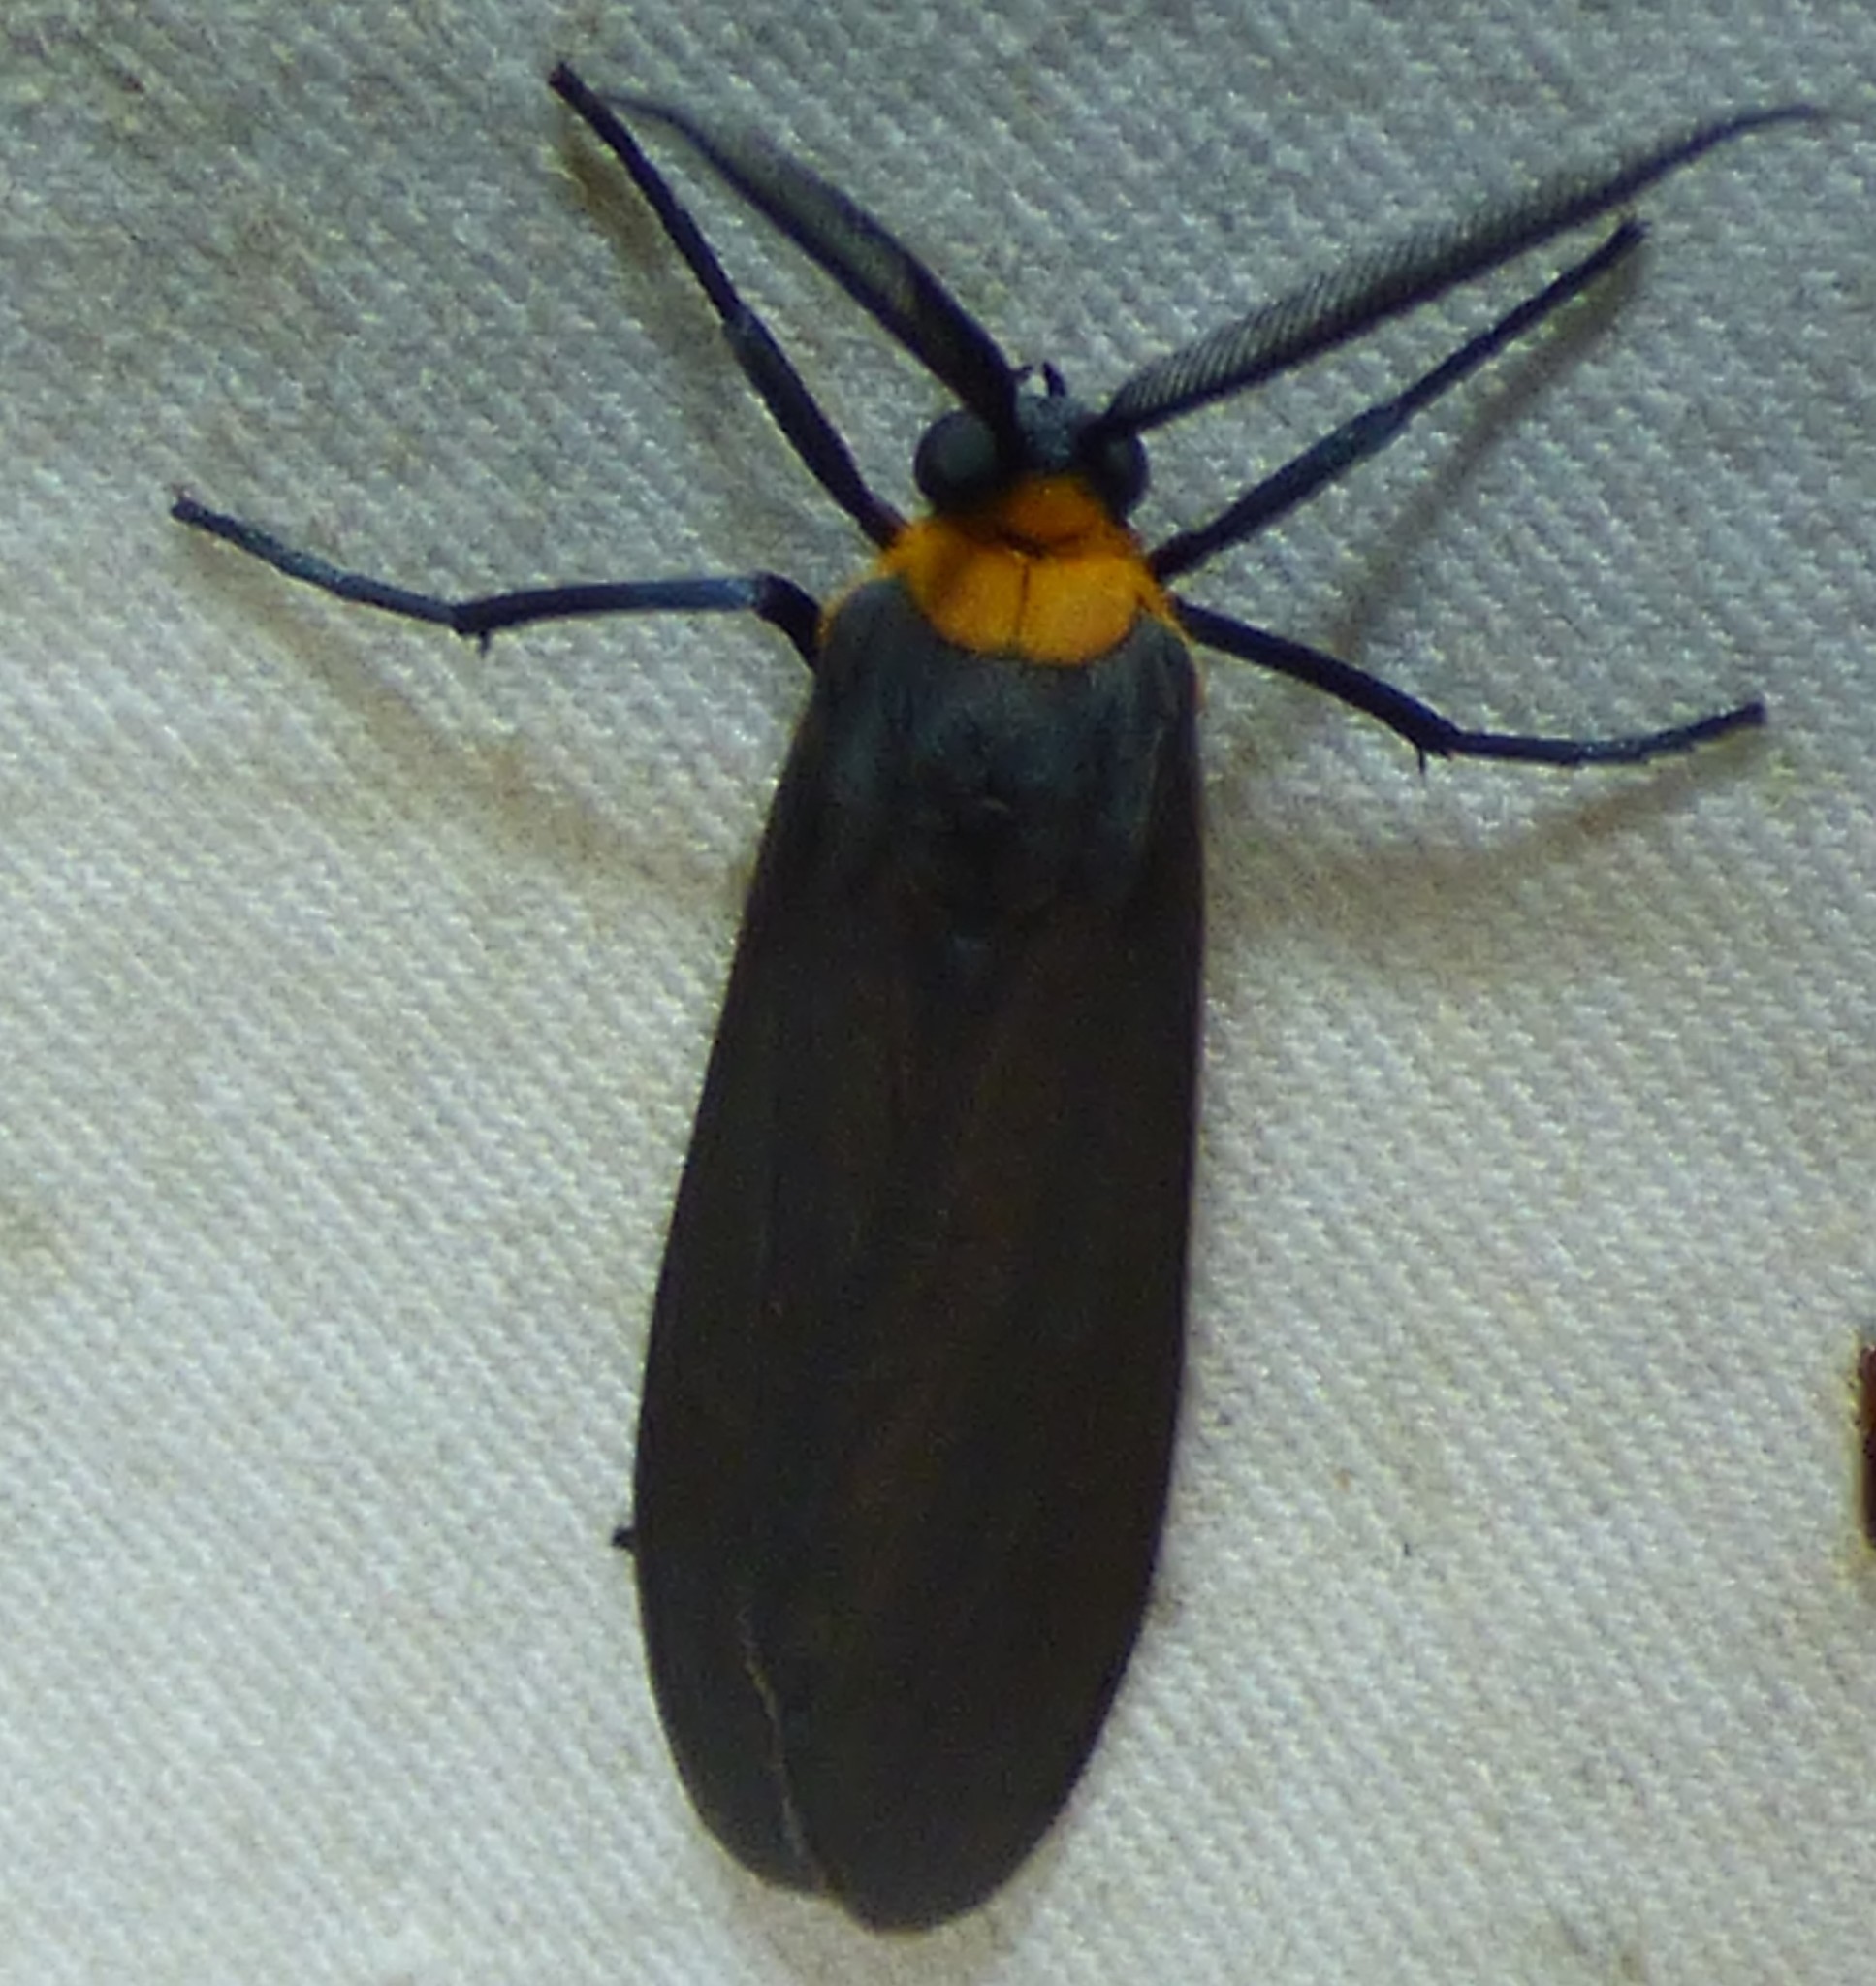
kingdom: Animalia
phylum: Arthropoda
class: Insecta
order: Lepidoptera
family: Erebidae
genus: Cisseps
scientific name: Cisseps fulvicollis
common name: Yellow-collared scape moth
